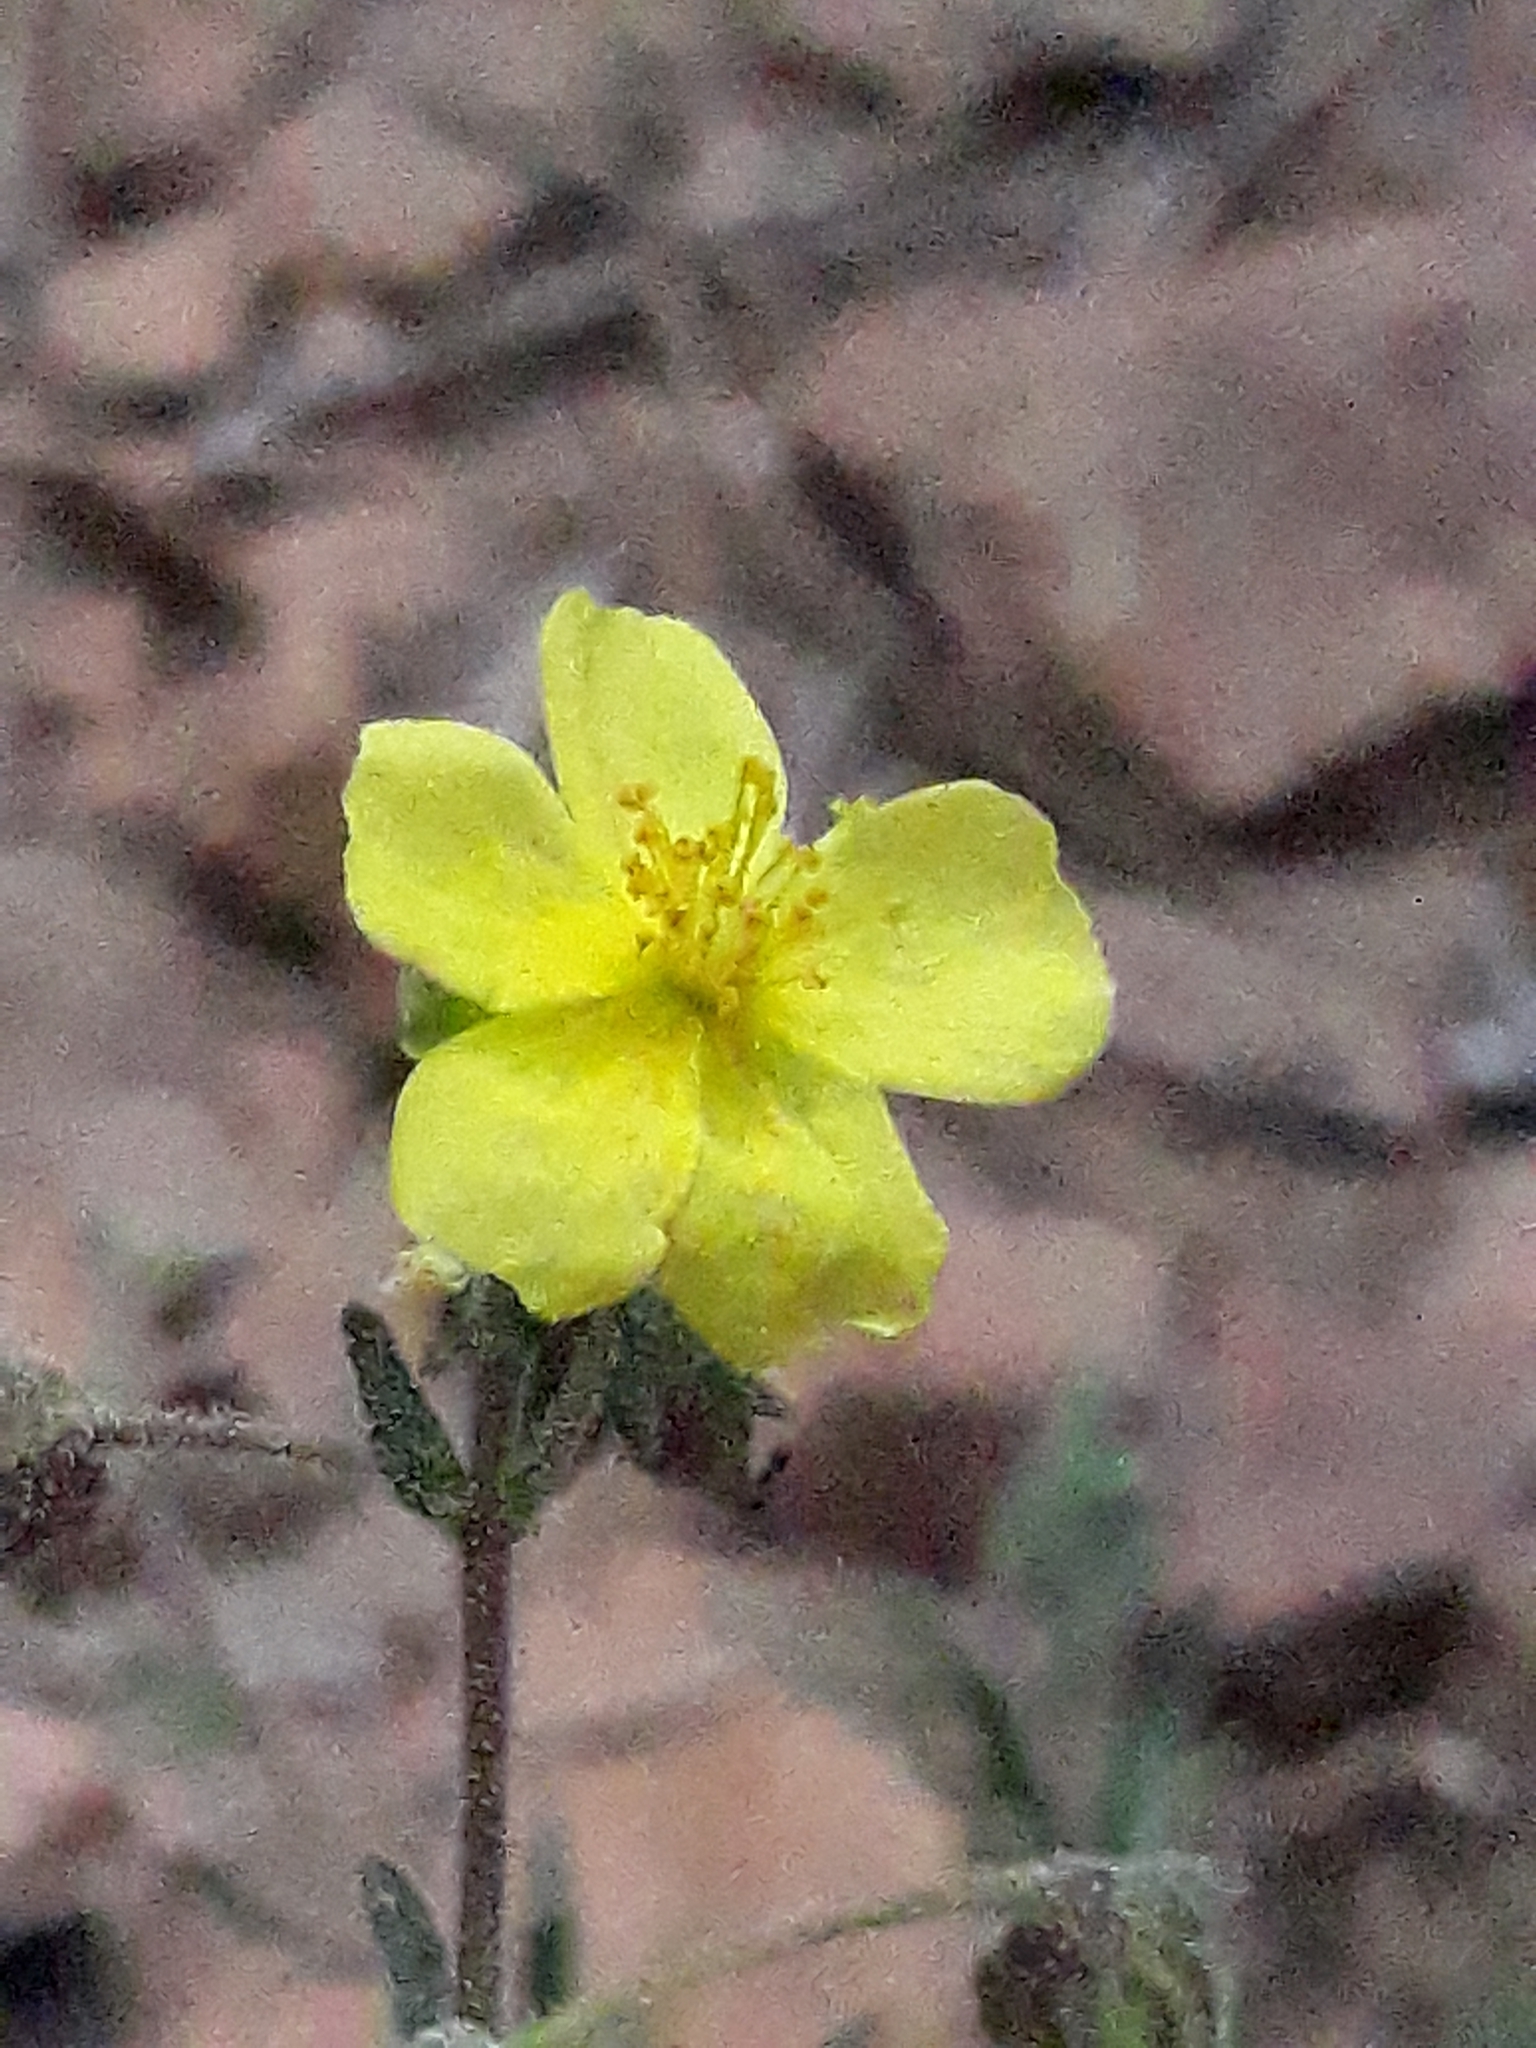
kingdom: Plantae
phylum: Tracheophyta
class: Magnoliopsida
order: Malvales
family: Cistaceae
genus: Fumana
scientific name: Fumana juniperina
